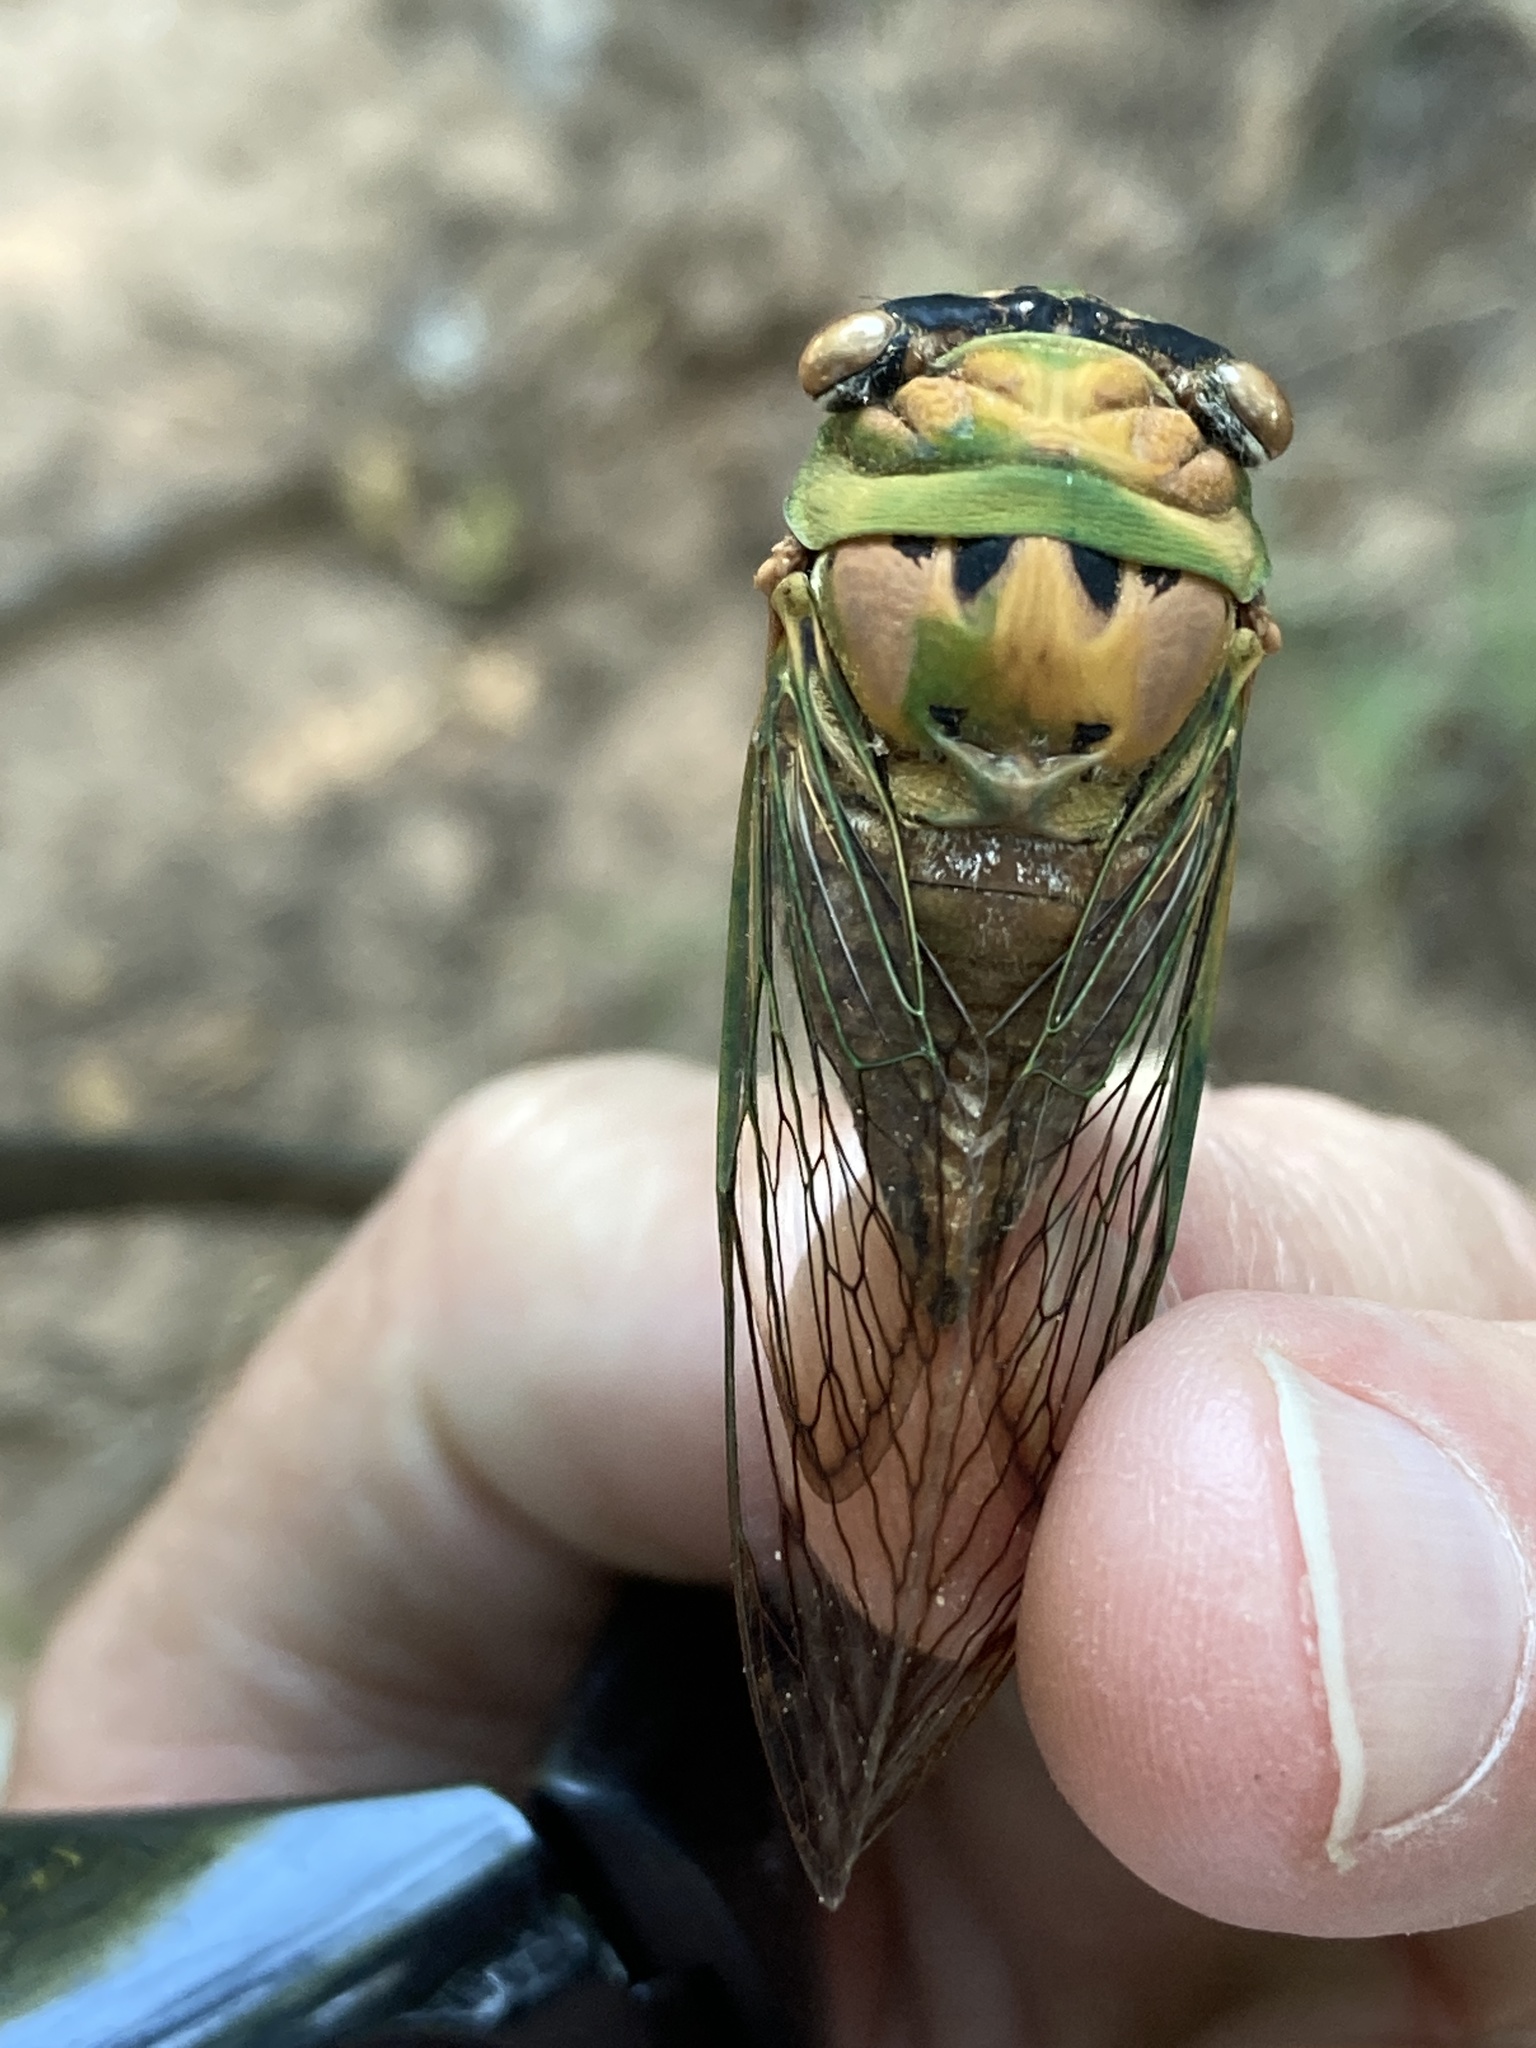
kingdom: Animalia
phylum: Arthropoda
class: Insecta
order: Hemiptera
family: Cicadidae
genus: Neotibicen
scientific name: Neotibicen superbus
